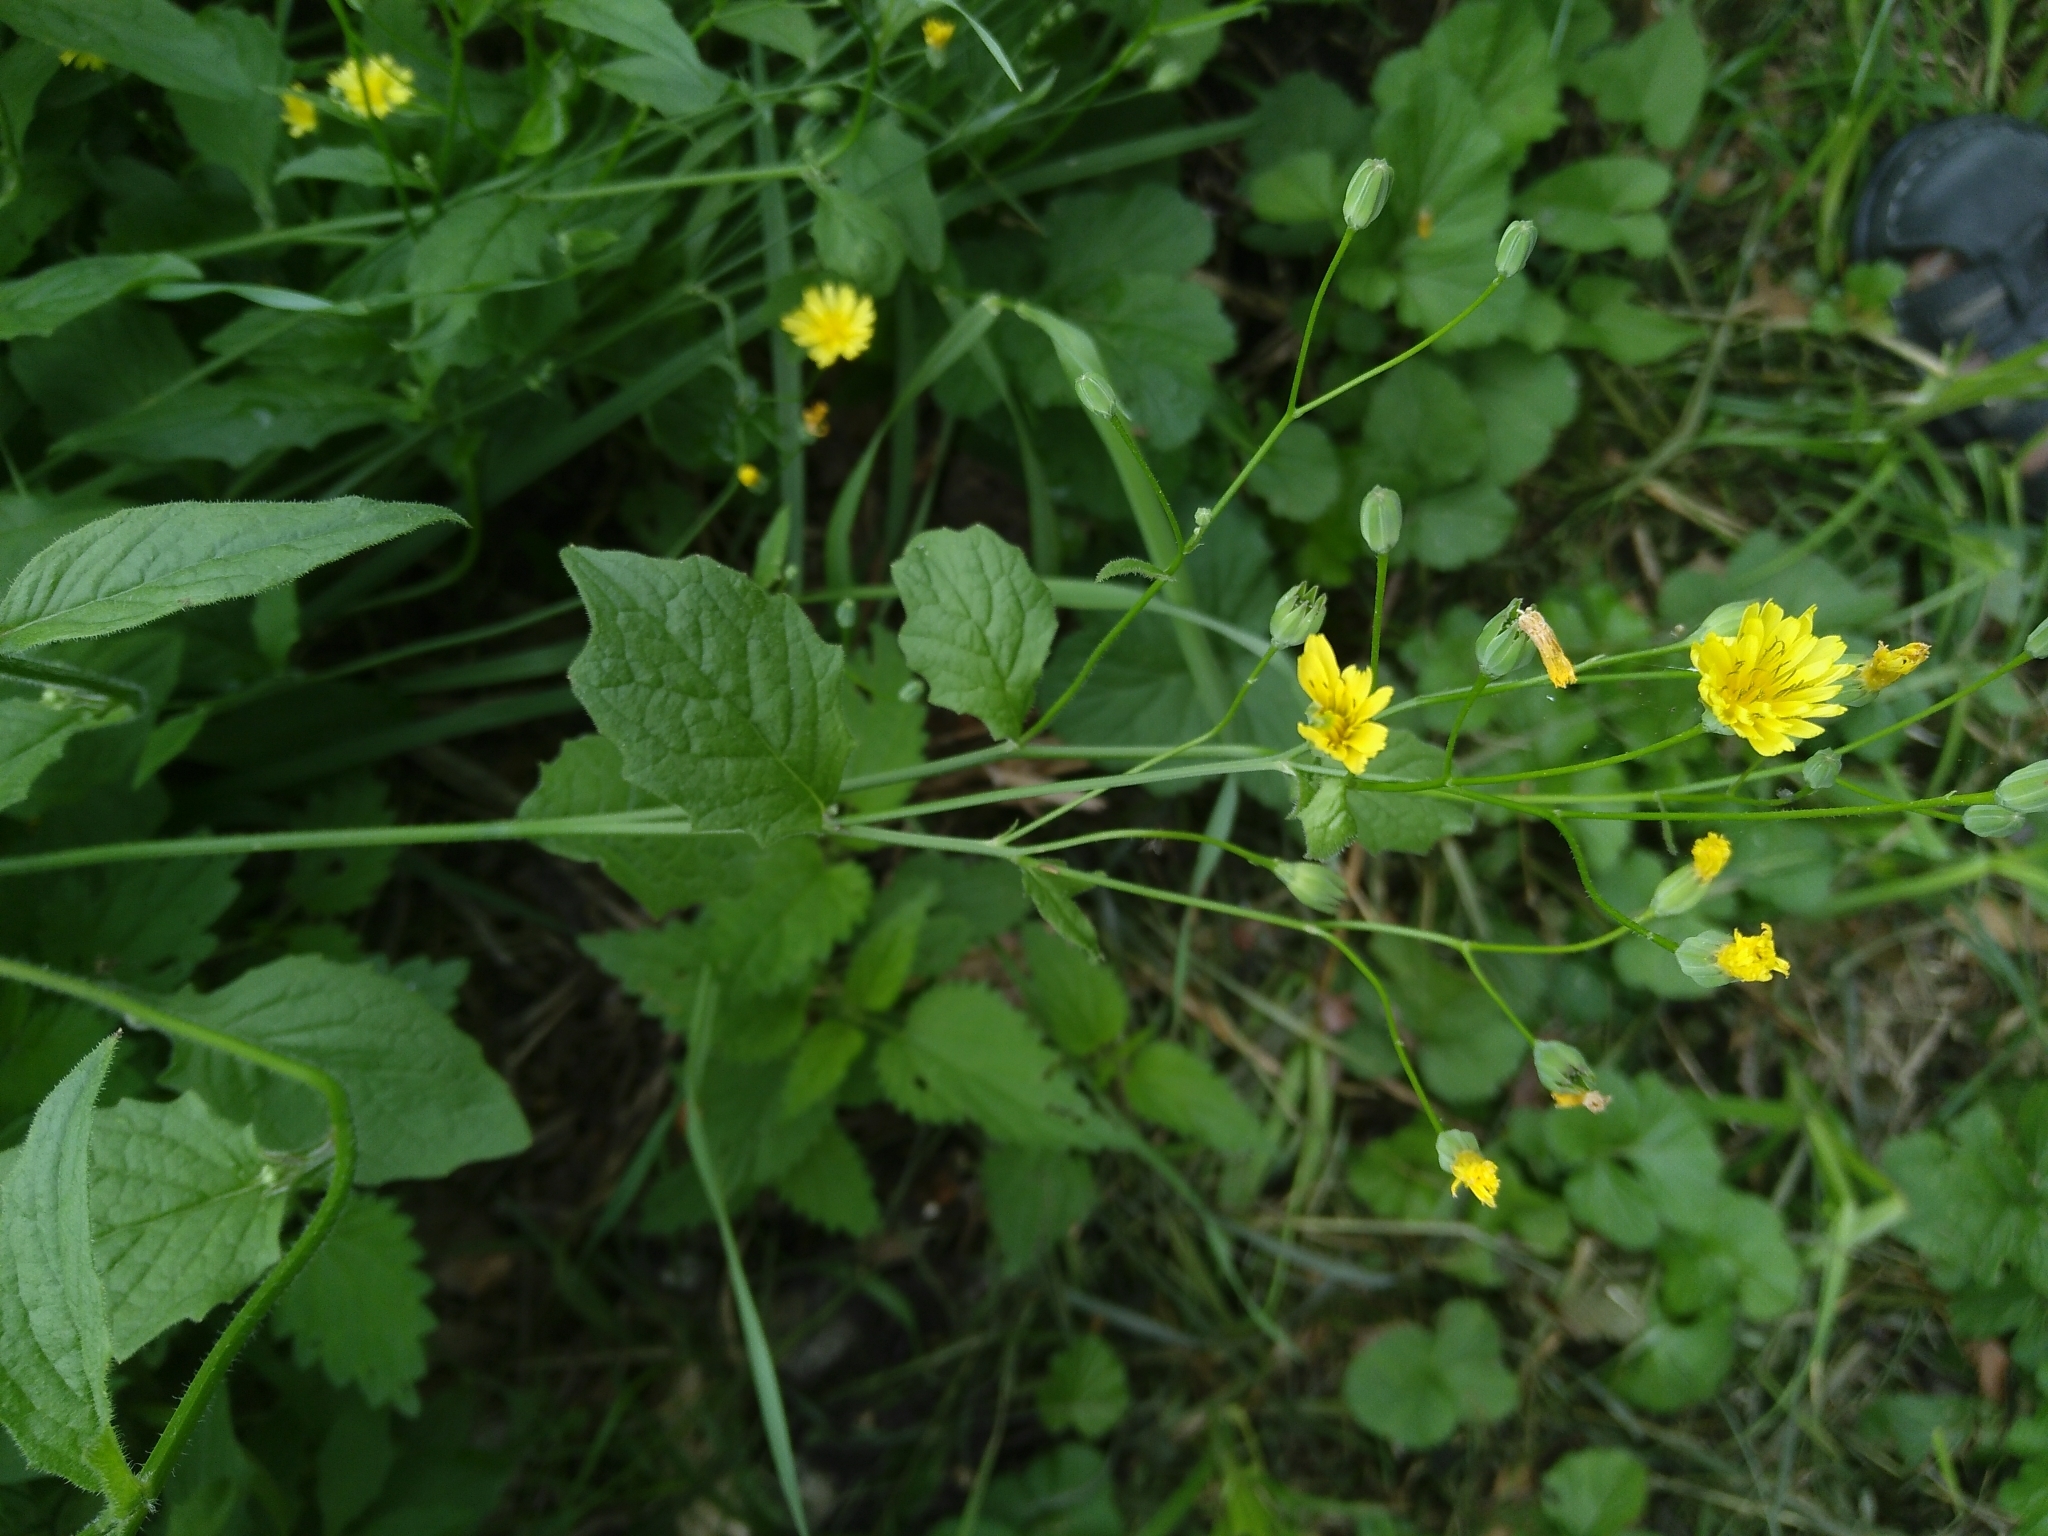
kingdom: Plantae
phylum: Tracheophyta
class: Magnoliopsida
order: Asterales
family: Asteraceae
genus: Lapsana
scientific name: Lapsana communis
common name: Nipplewort
